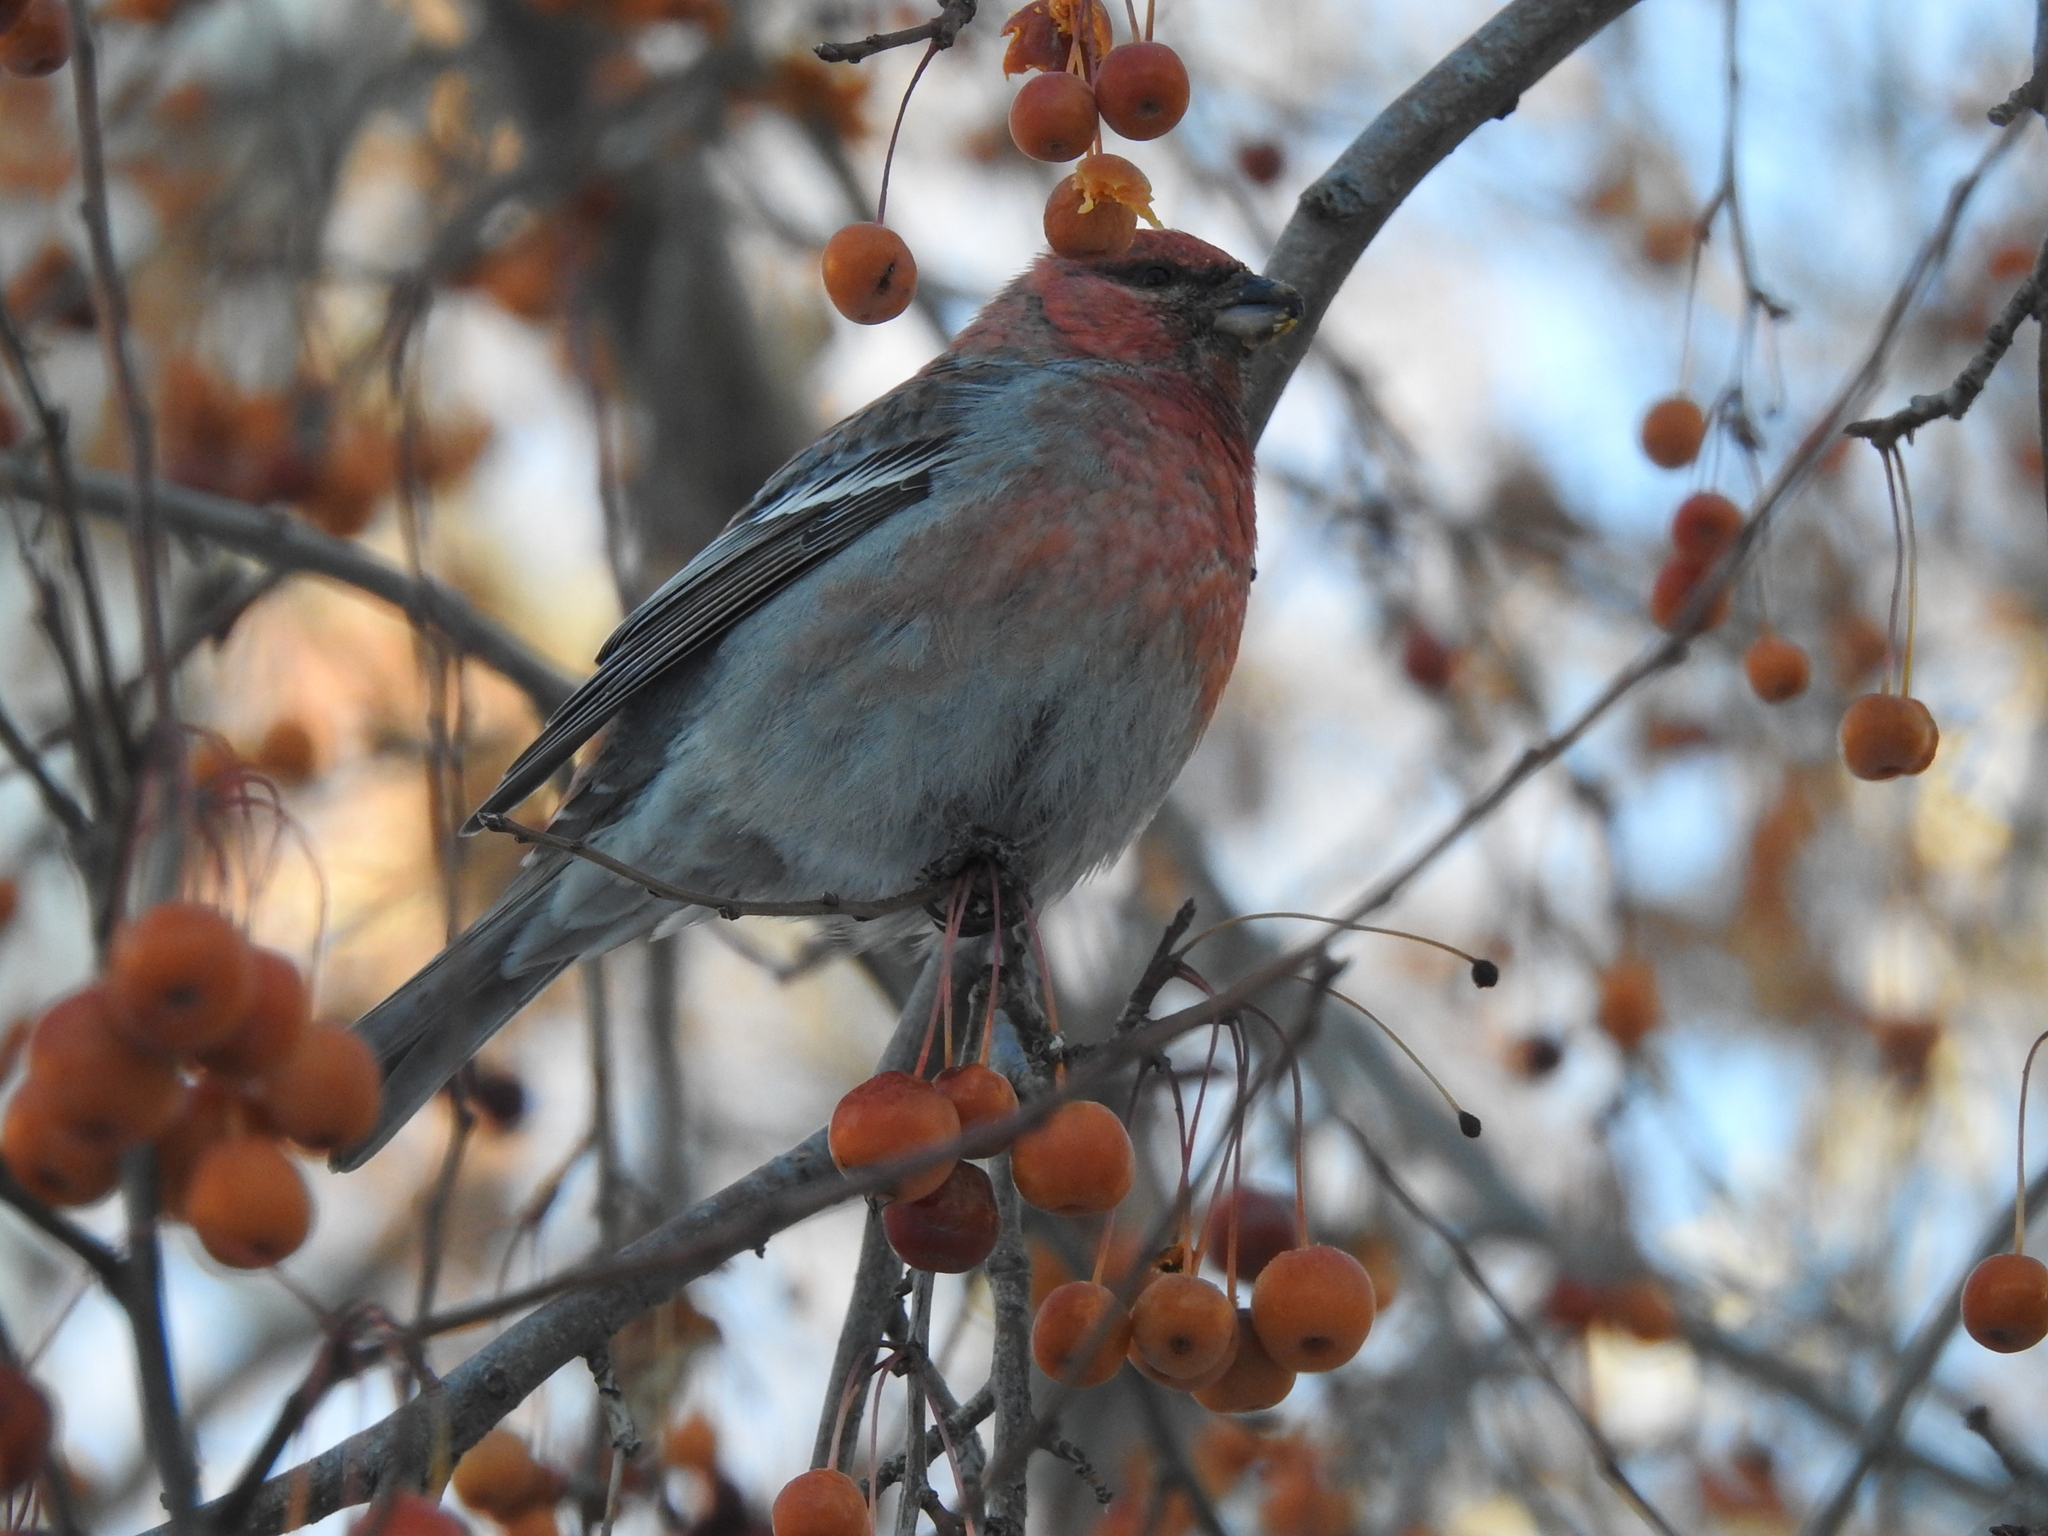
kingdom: Animalia
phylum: Chordata
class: Aves
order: Passeriformes
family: Fringillidae
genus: Pinicola
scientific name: Pinicola enucleator
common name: Pine grosbeak
